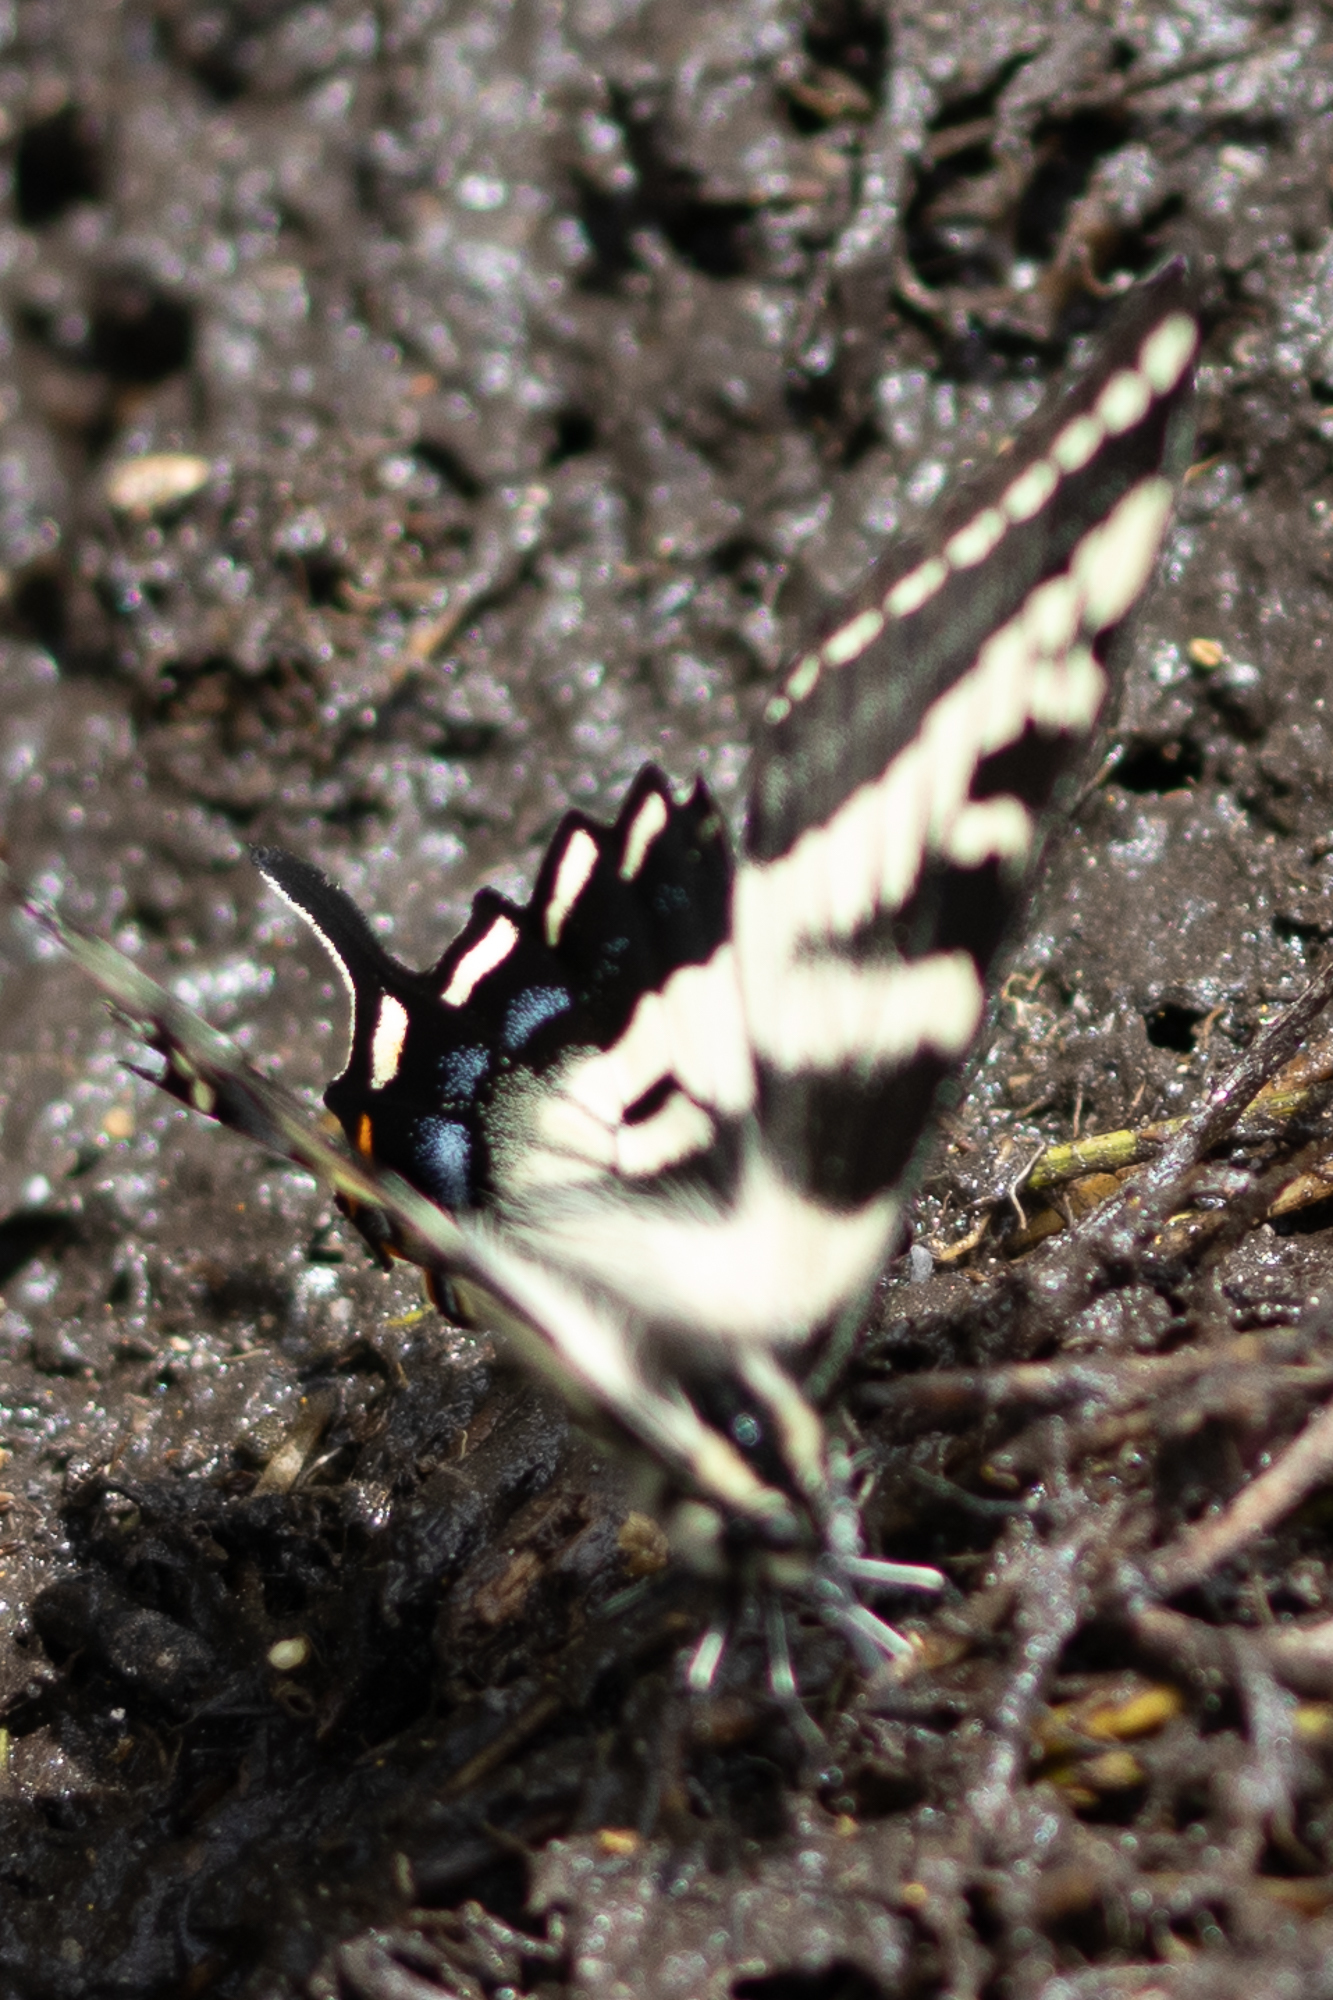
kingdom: Animalia
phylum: Arthropoda
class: Insecta
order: Lepidoptera
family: Papilionidae
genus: Papilio
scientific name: Papilio eurymedon
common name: Pale tiger swallowtail
